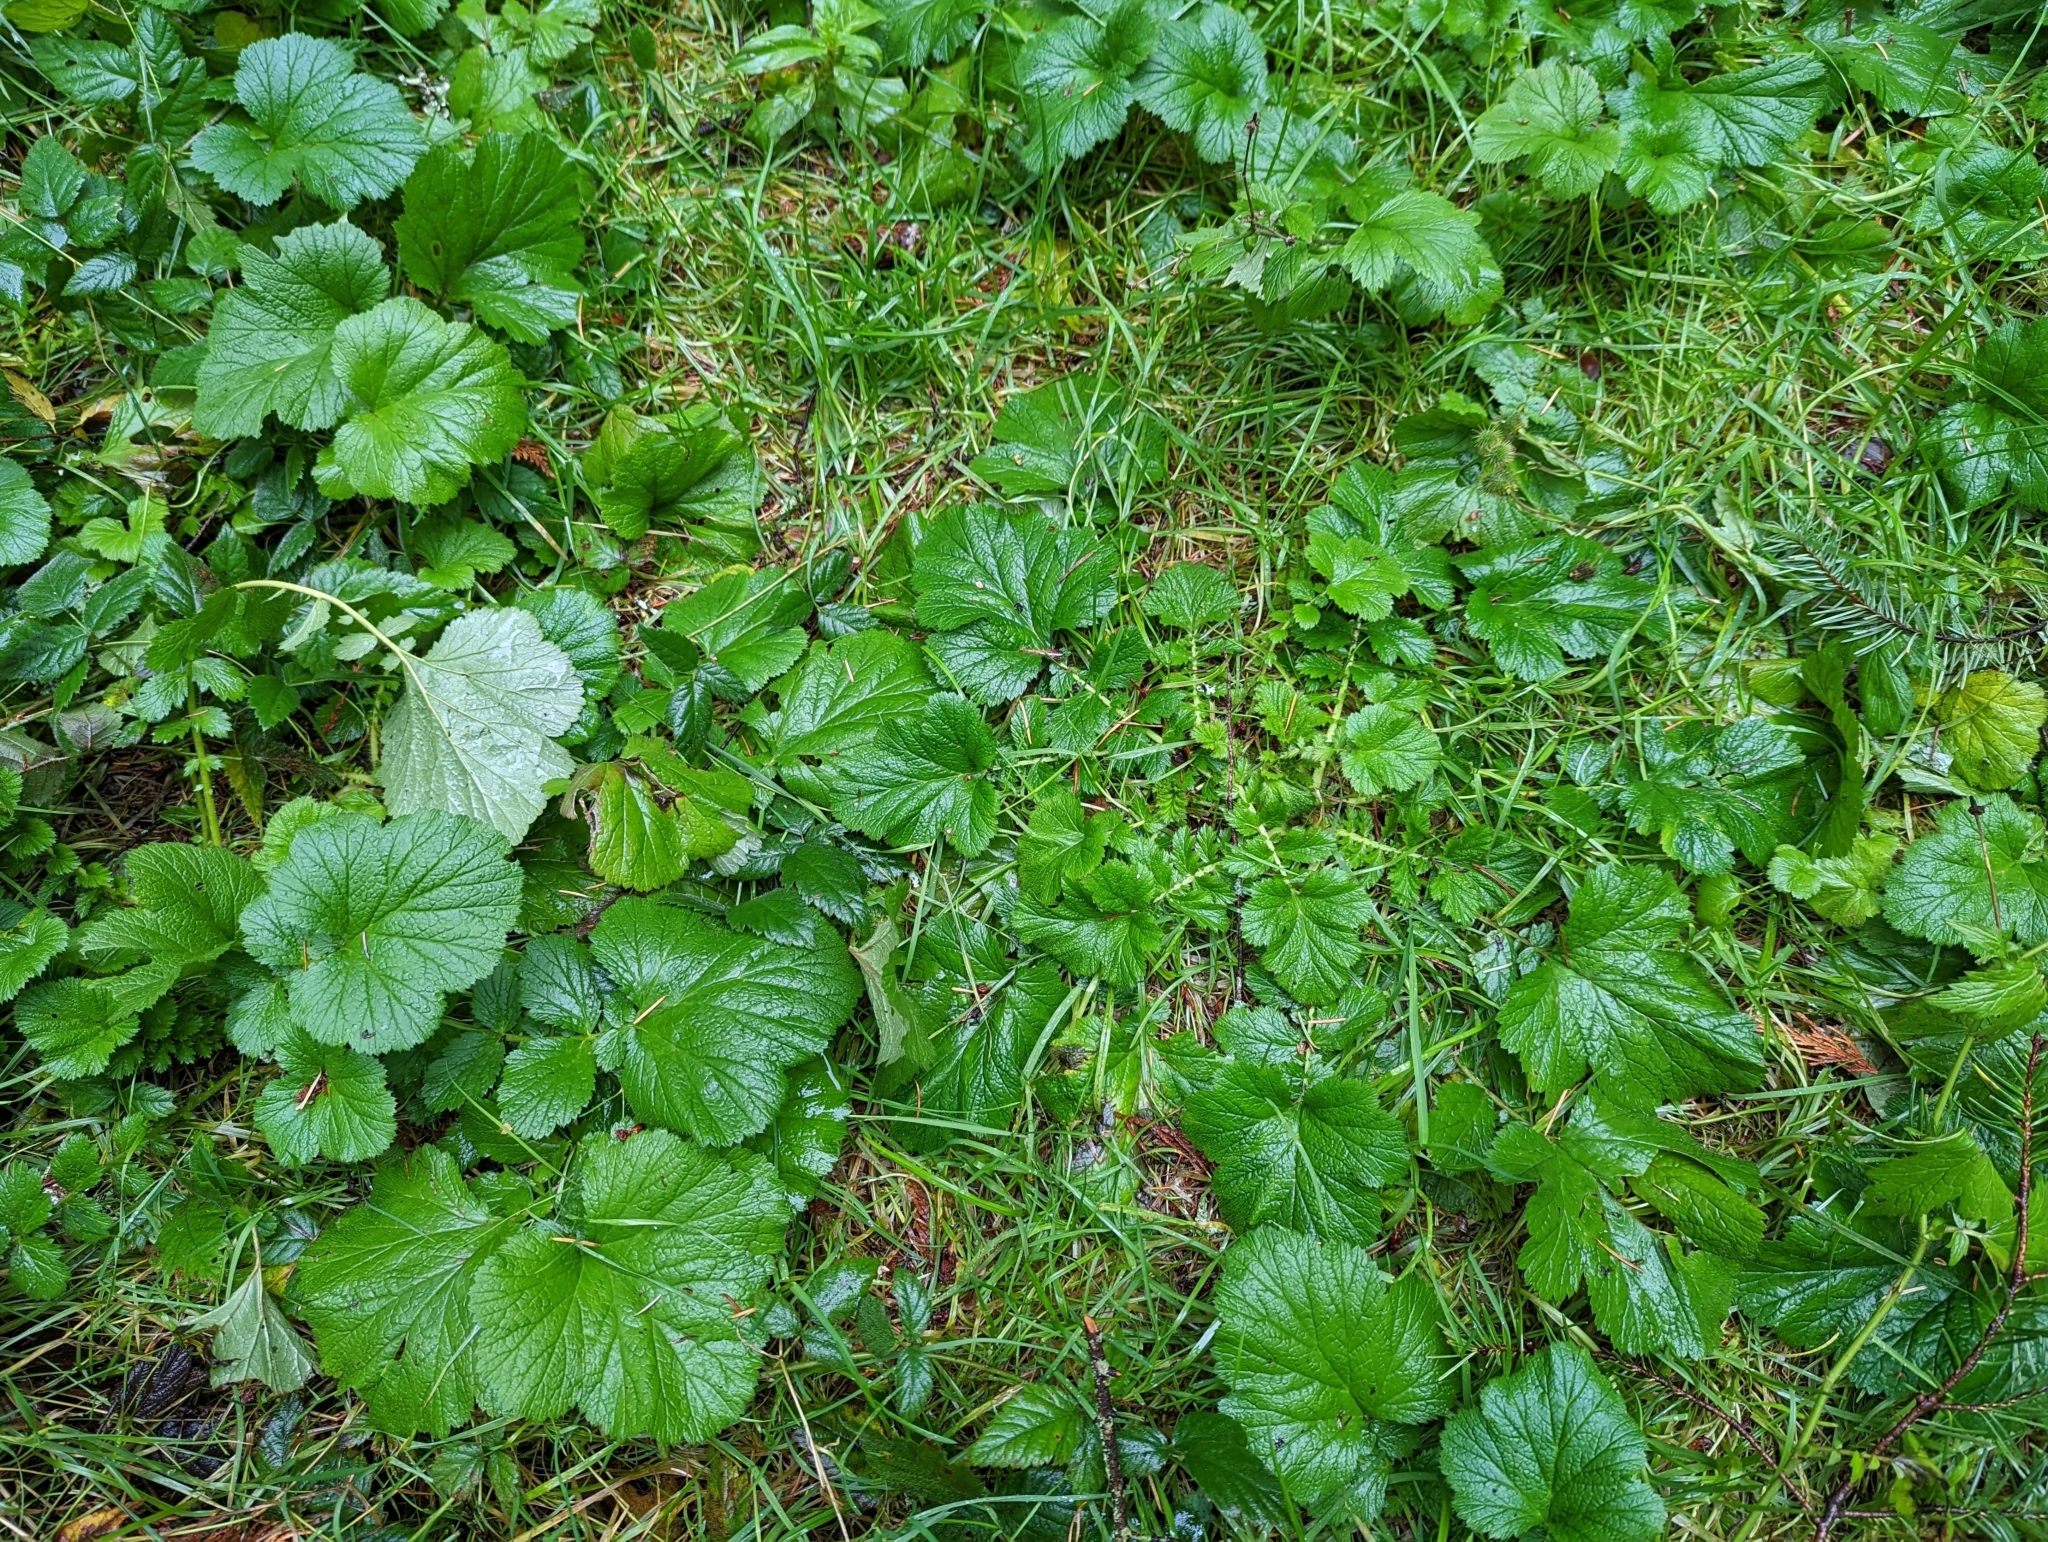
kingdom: Plantae
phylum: Tracheophyta
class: Magnoliopsida
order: Rosales
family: Rosaceae
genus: Geum
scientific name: Geum macrophyllum
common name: Large-leaved avens
